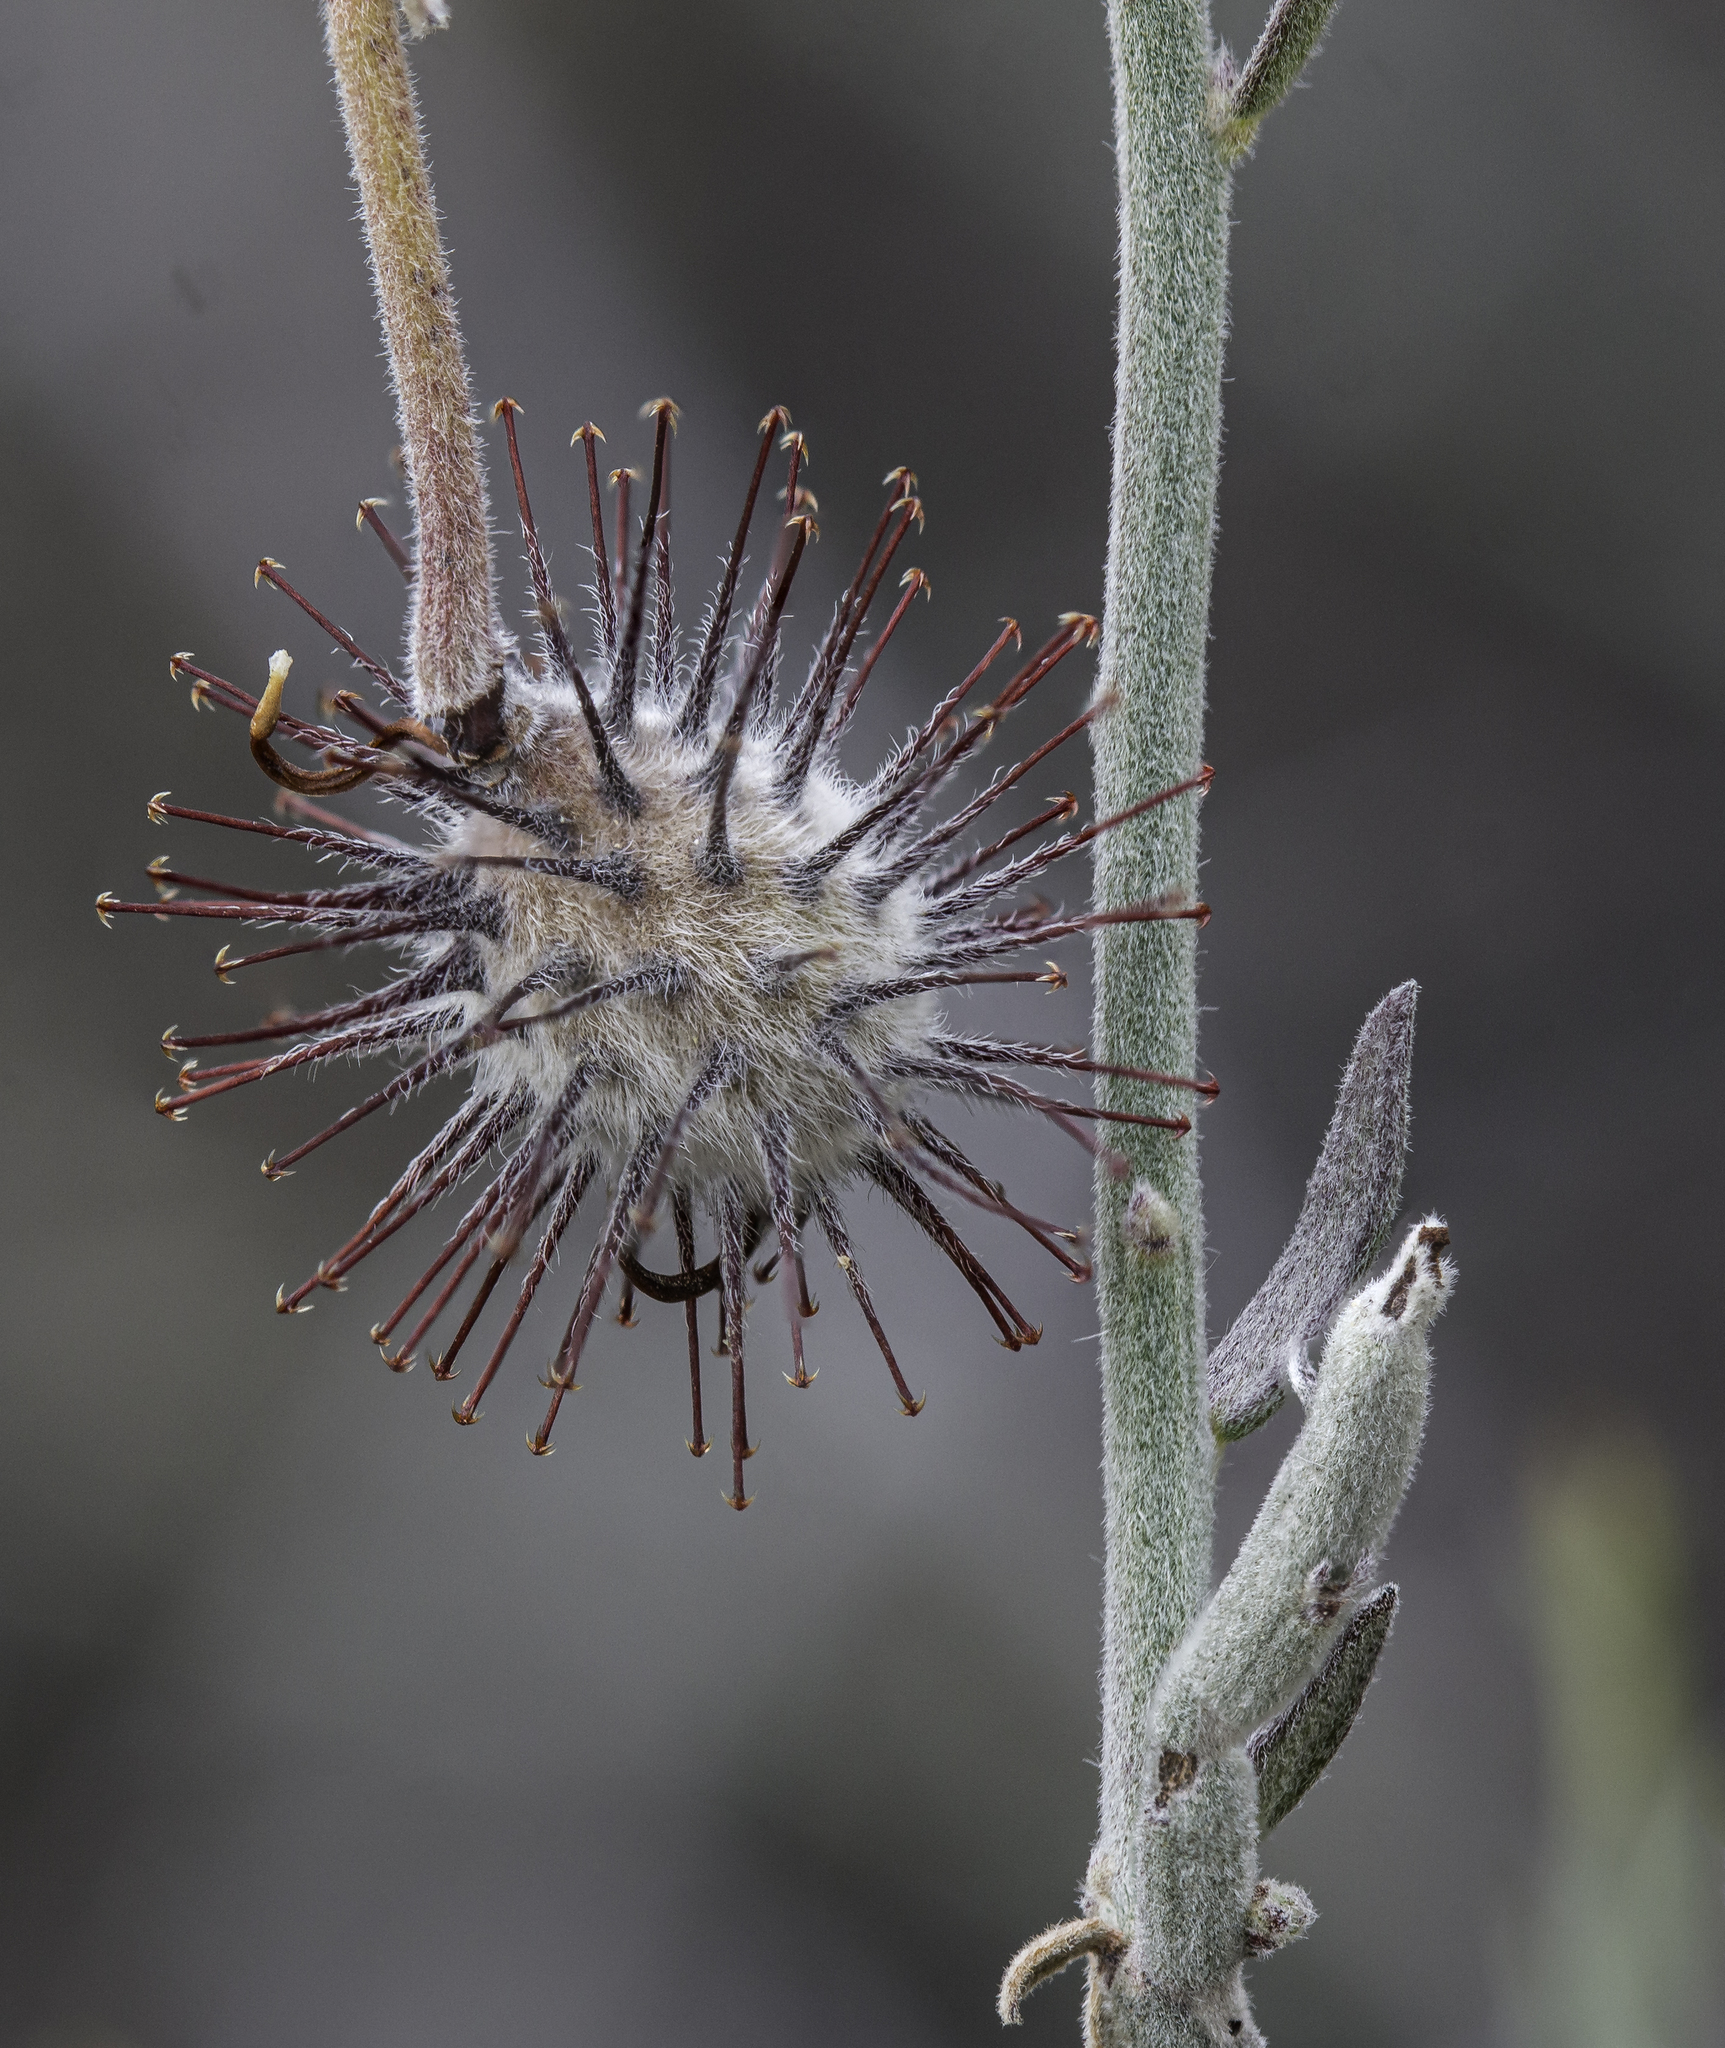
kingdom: Plantae
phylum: Tracheophyta
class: Magnoliopsida
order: Zygophyllales
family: Krameriaceae
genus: Krameria
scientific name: Krameria bicolor
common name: White ratany
